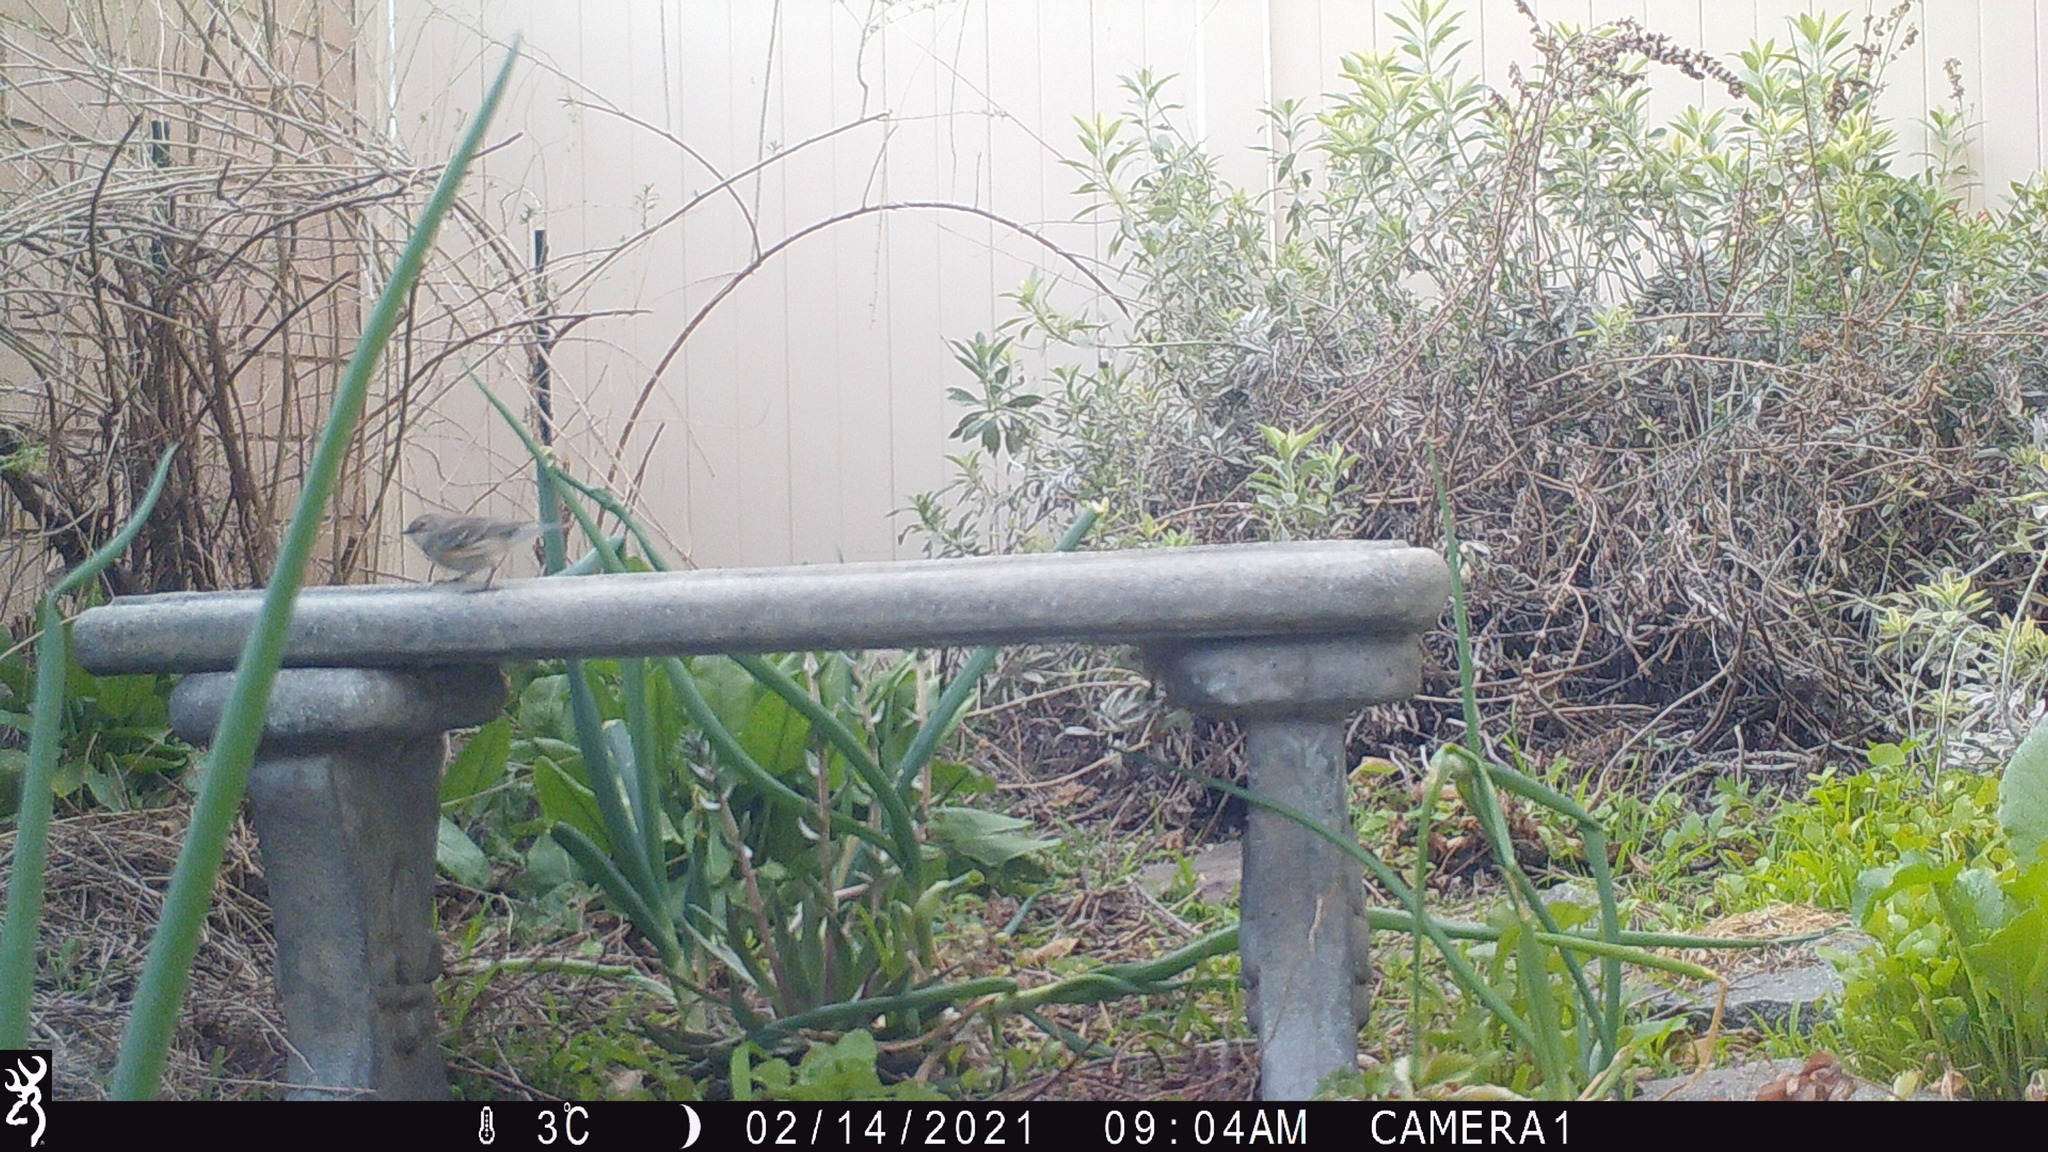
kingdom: Animalia
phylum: Chordata
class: Aves
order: Passeriformes
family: Parulidae
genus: Setophaga
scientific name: Setophaga coronata
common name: Myrtle warbler
